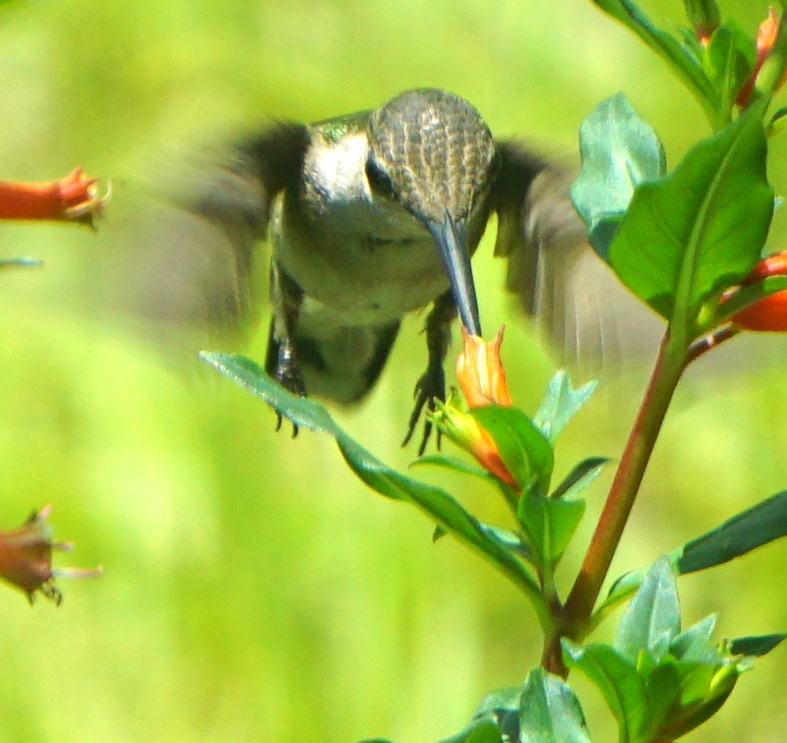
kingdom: Animalia
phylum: Chordata
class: Aves
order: Apodiformes
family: Trochilidae
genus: Archilochus
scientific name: Archilochus colubris
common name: Ruby-throated hummingbird
